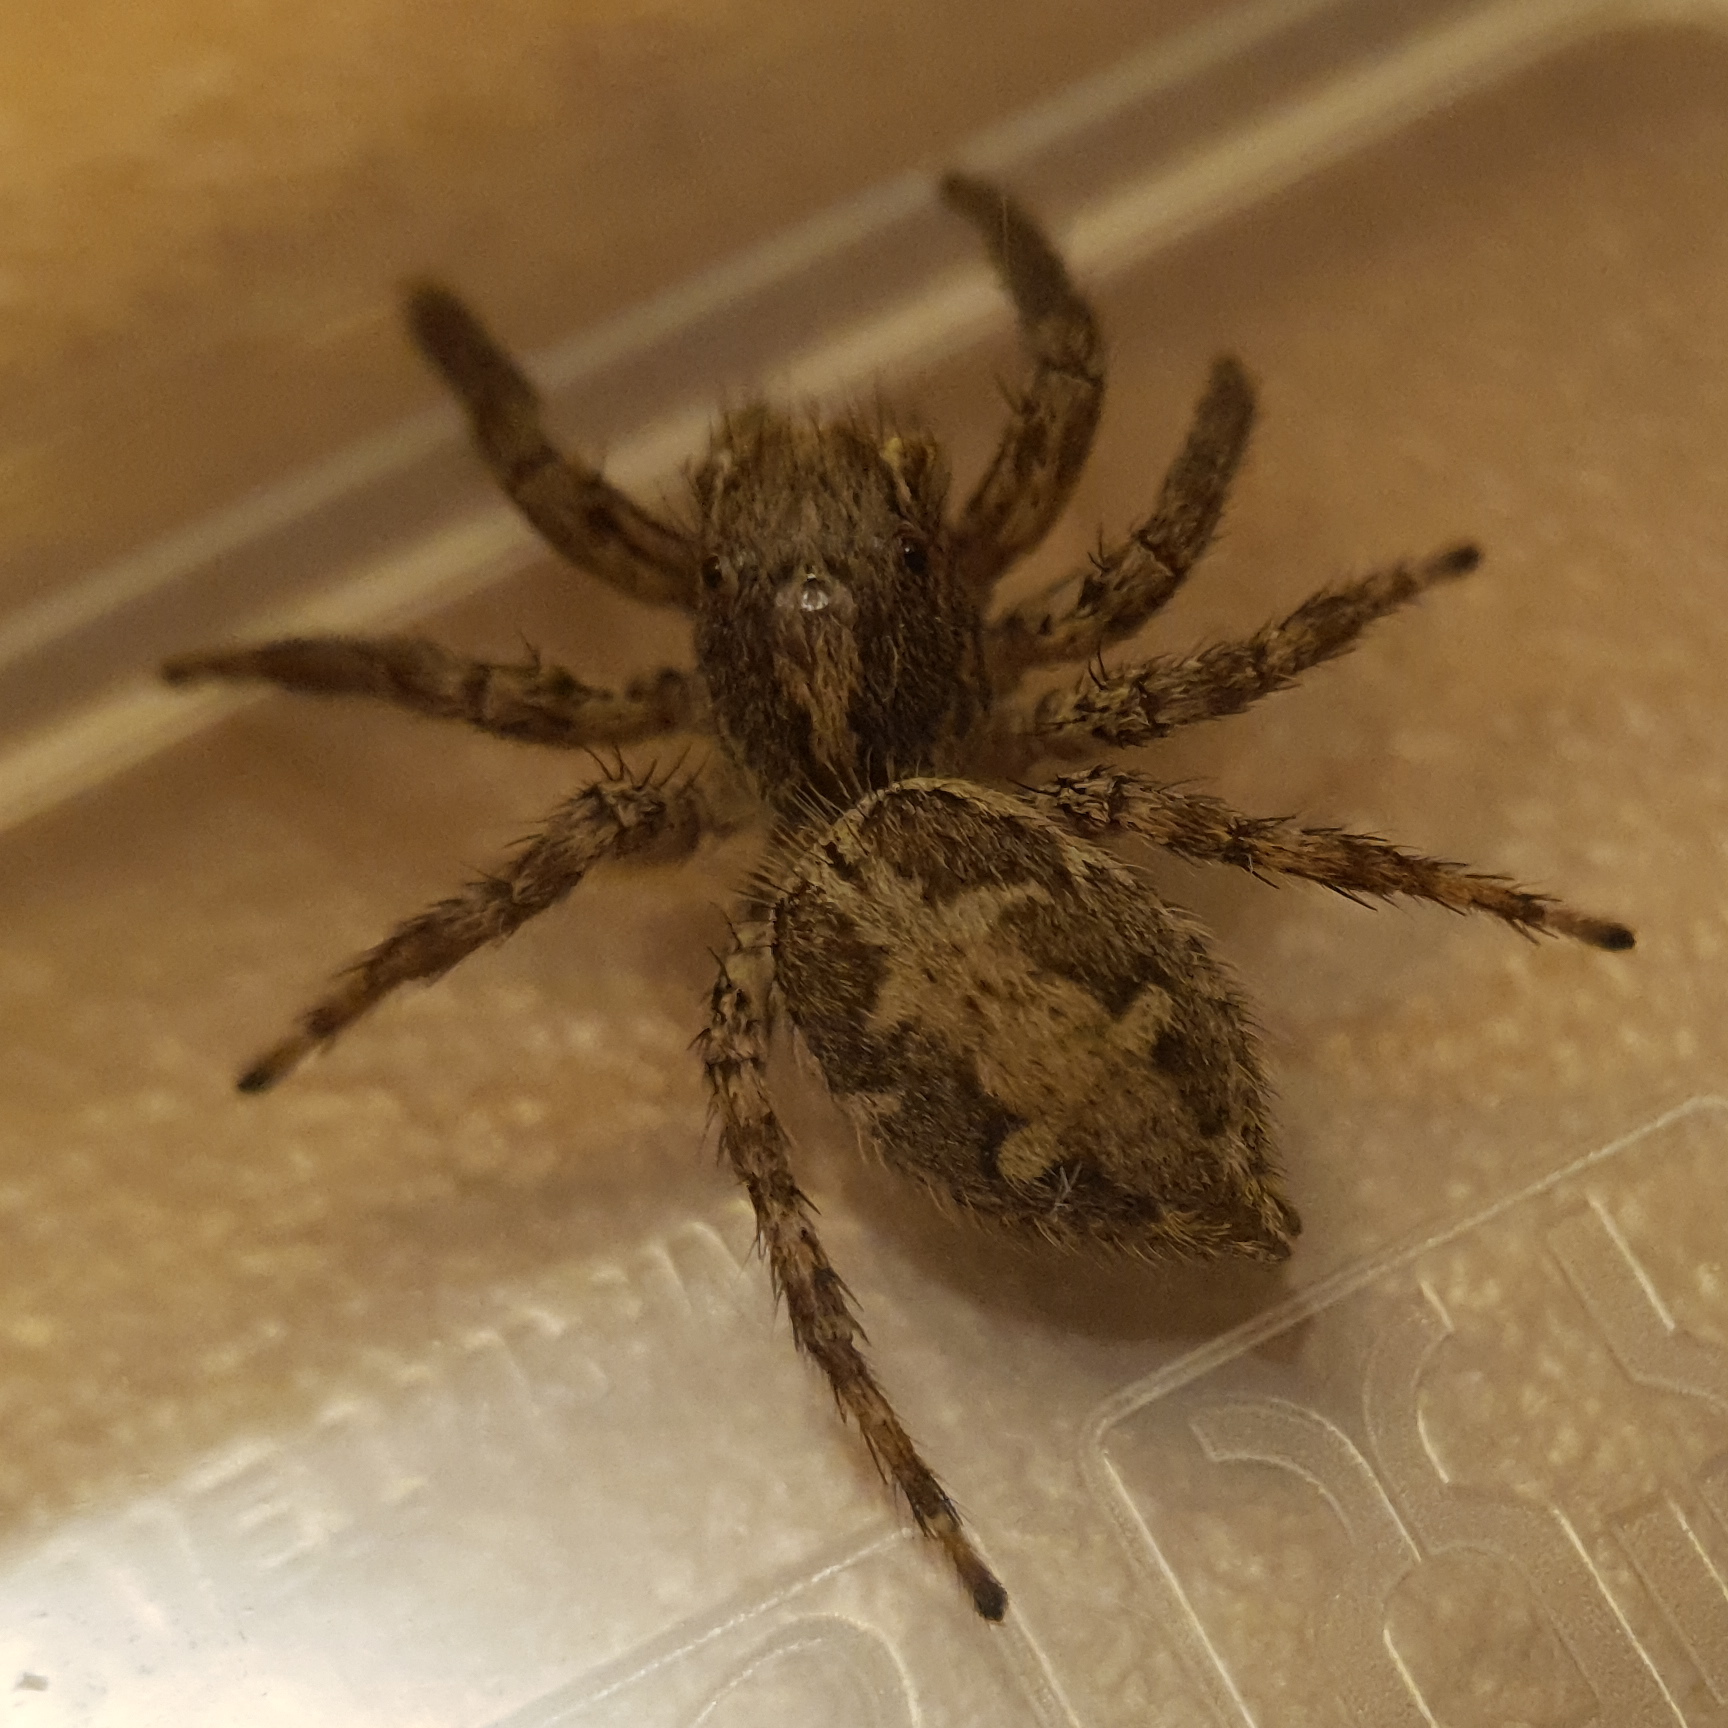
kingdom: Animalia
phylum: Arthropoda
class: Arachnida
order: Araneae
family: Salticidae
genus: Plexippus
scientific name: Plexippus paykulli
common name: Pantropical jumper
